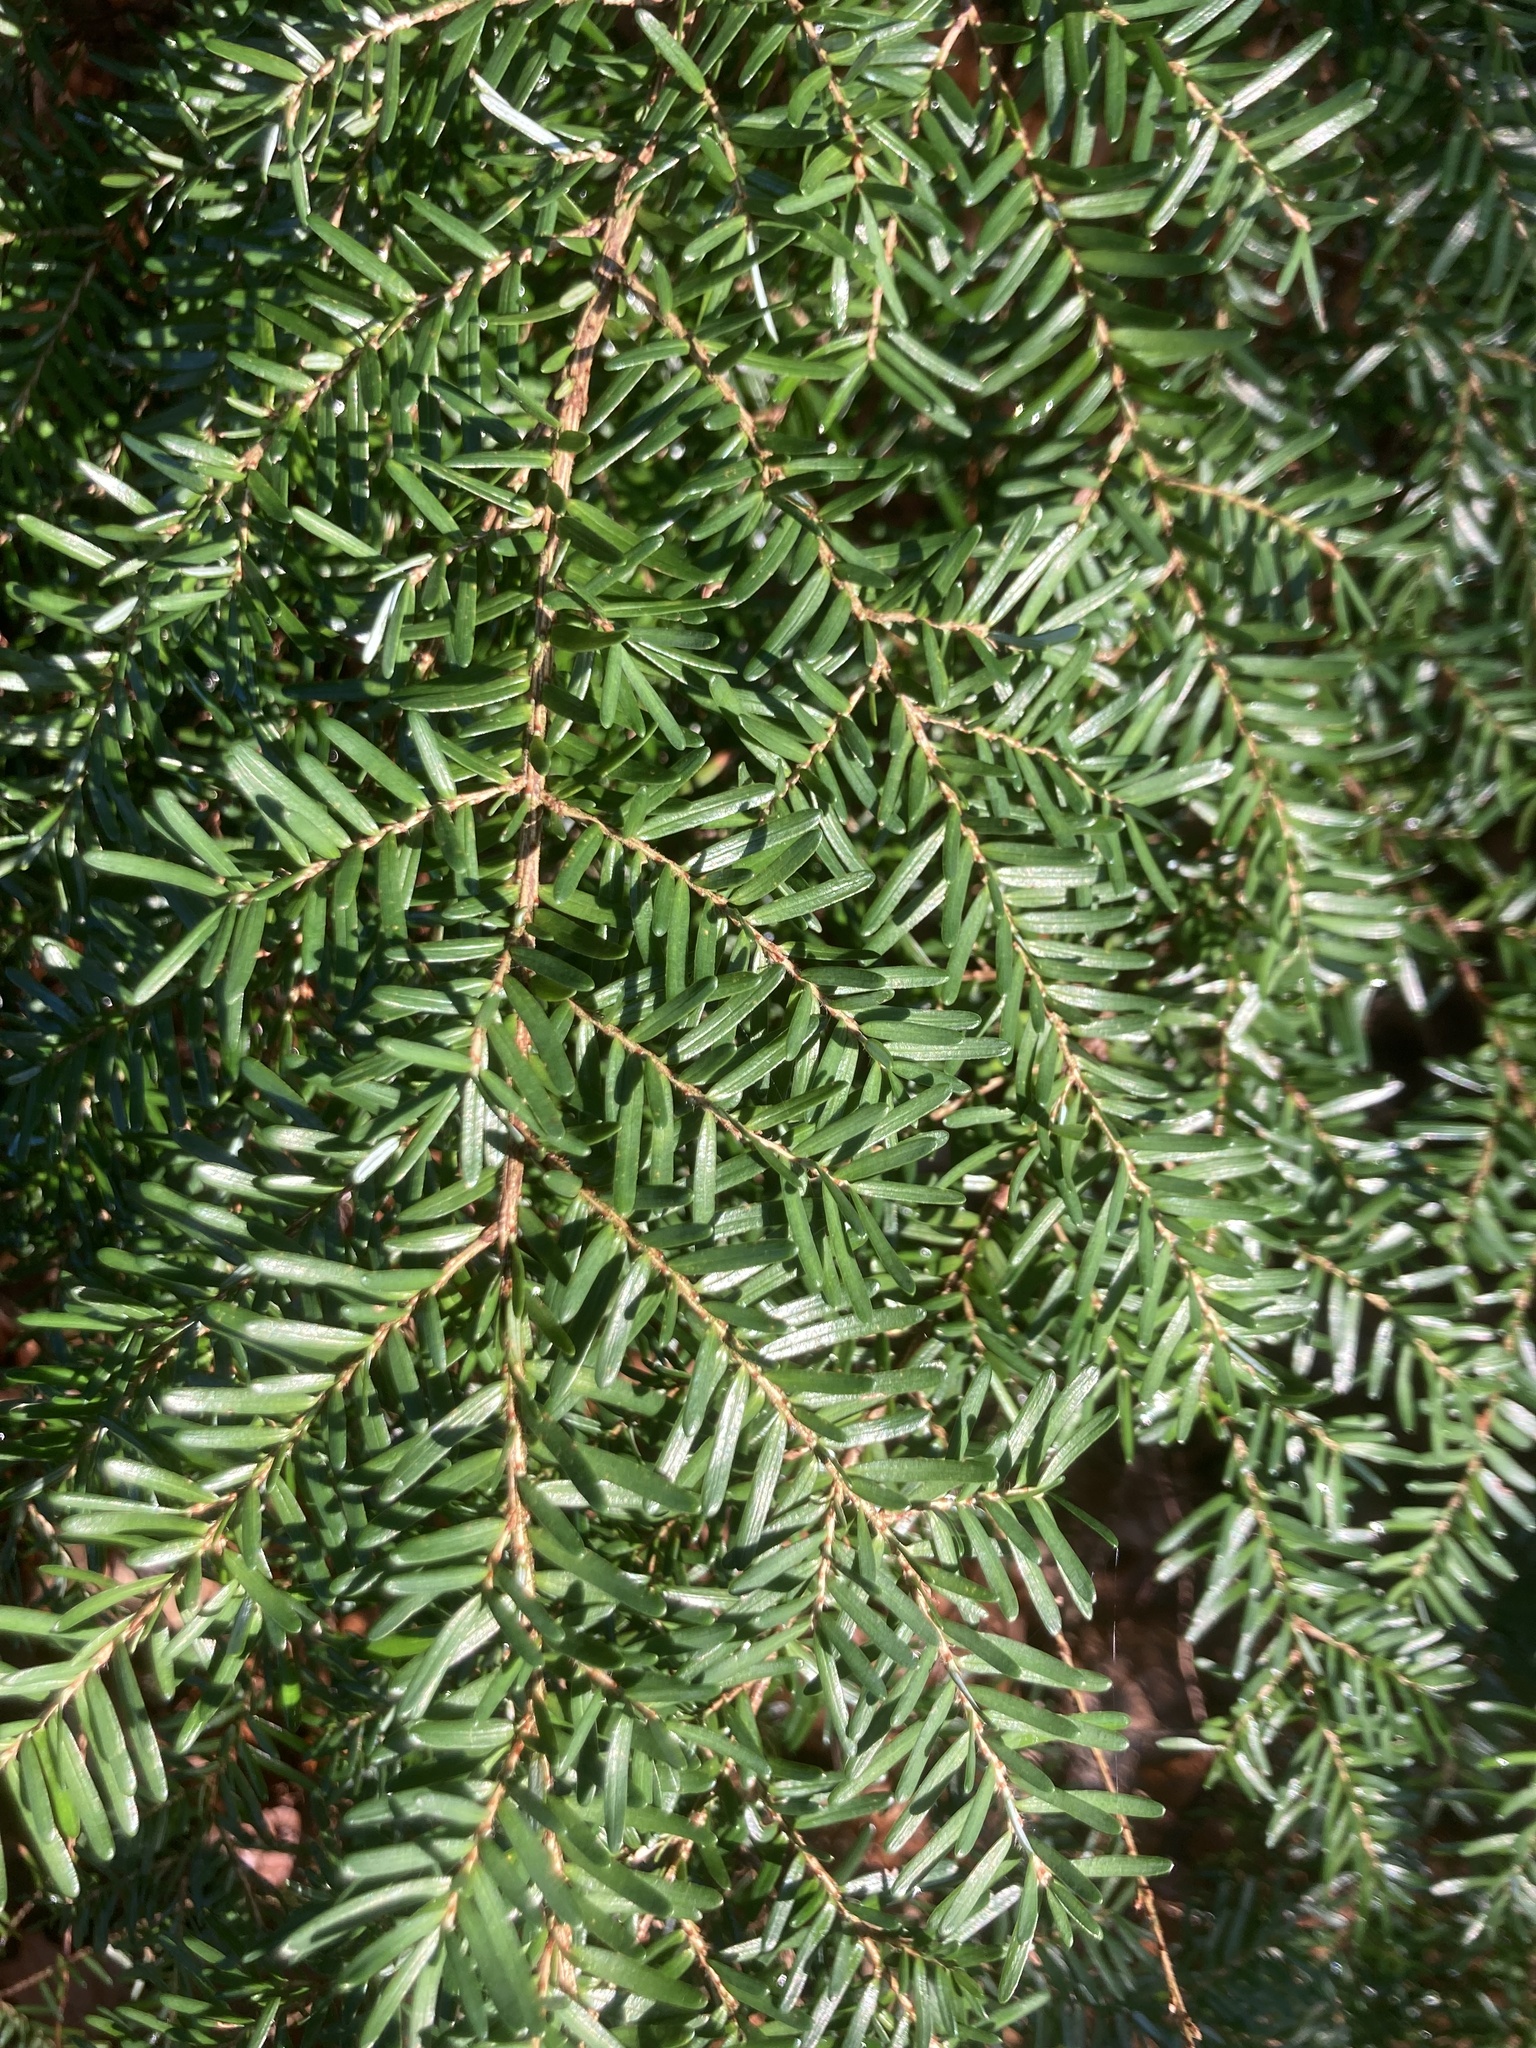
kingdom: Plantae
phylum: Tracheophyta
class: Pinopsida
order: Pinales
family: Pinaceae
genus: Tsuga
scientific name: Tsuga heterophylla
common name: Western hemlock
